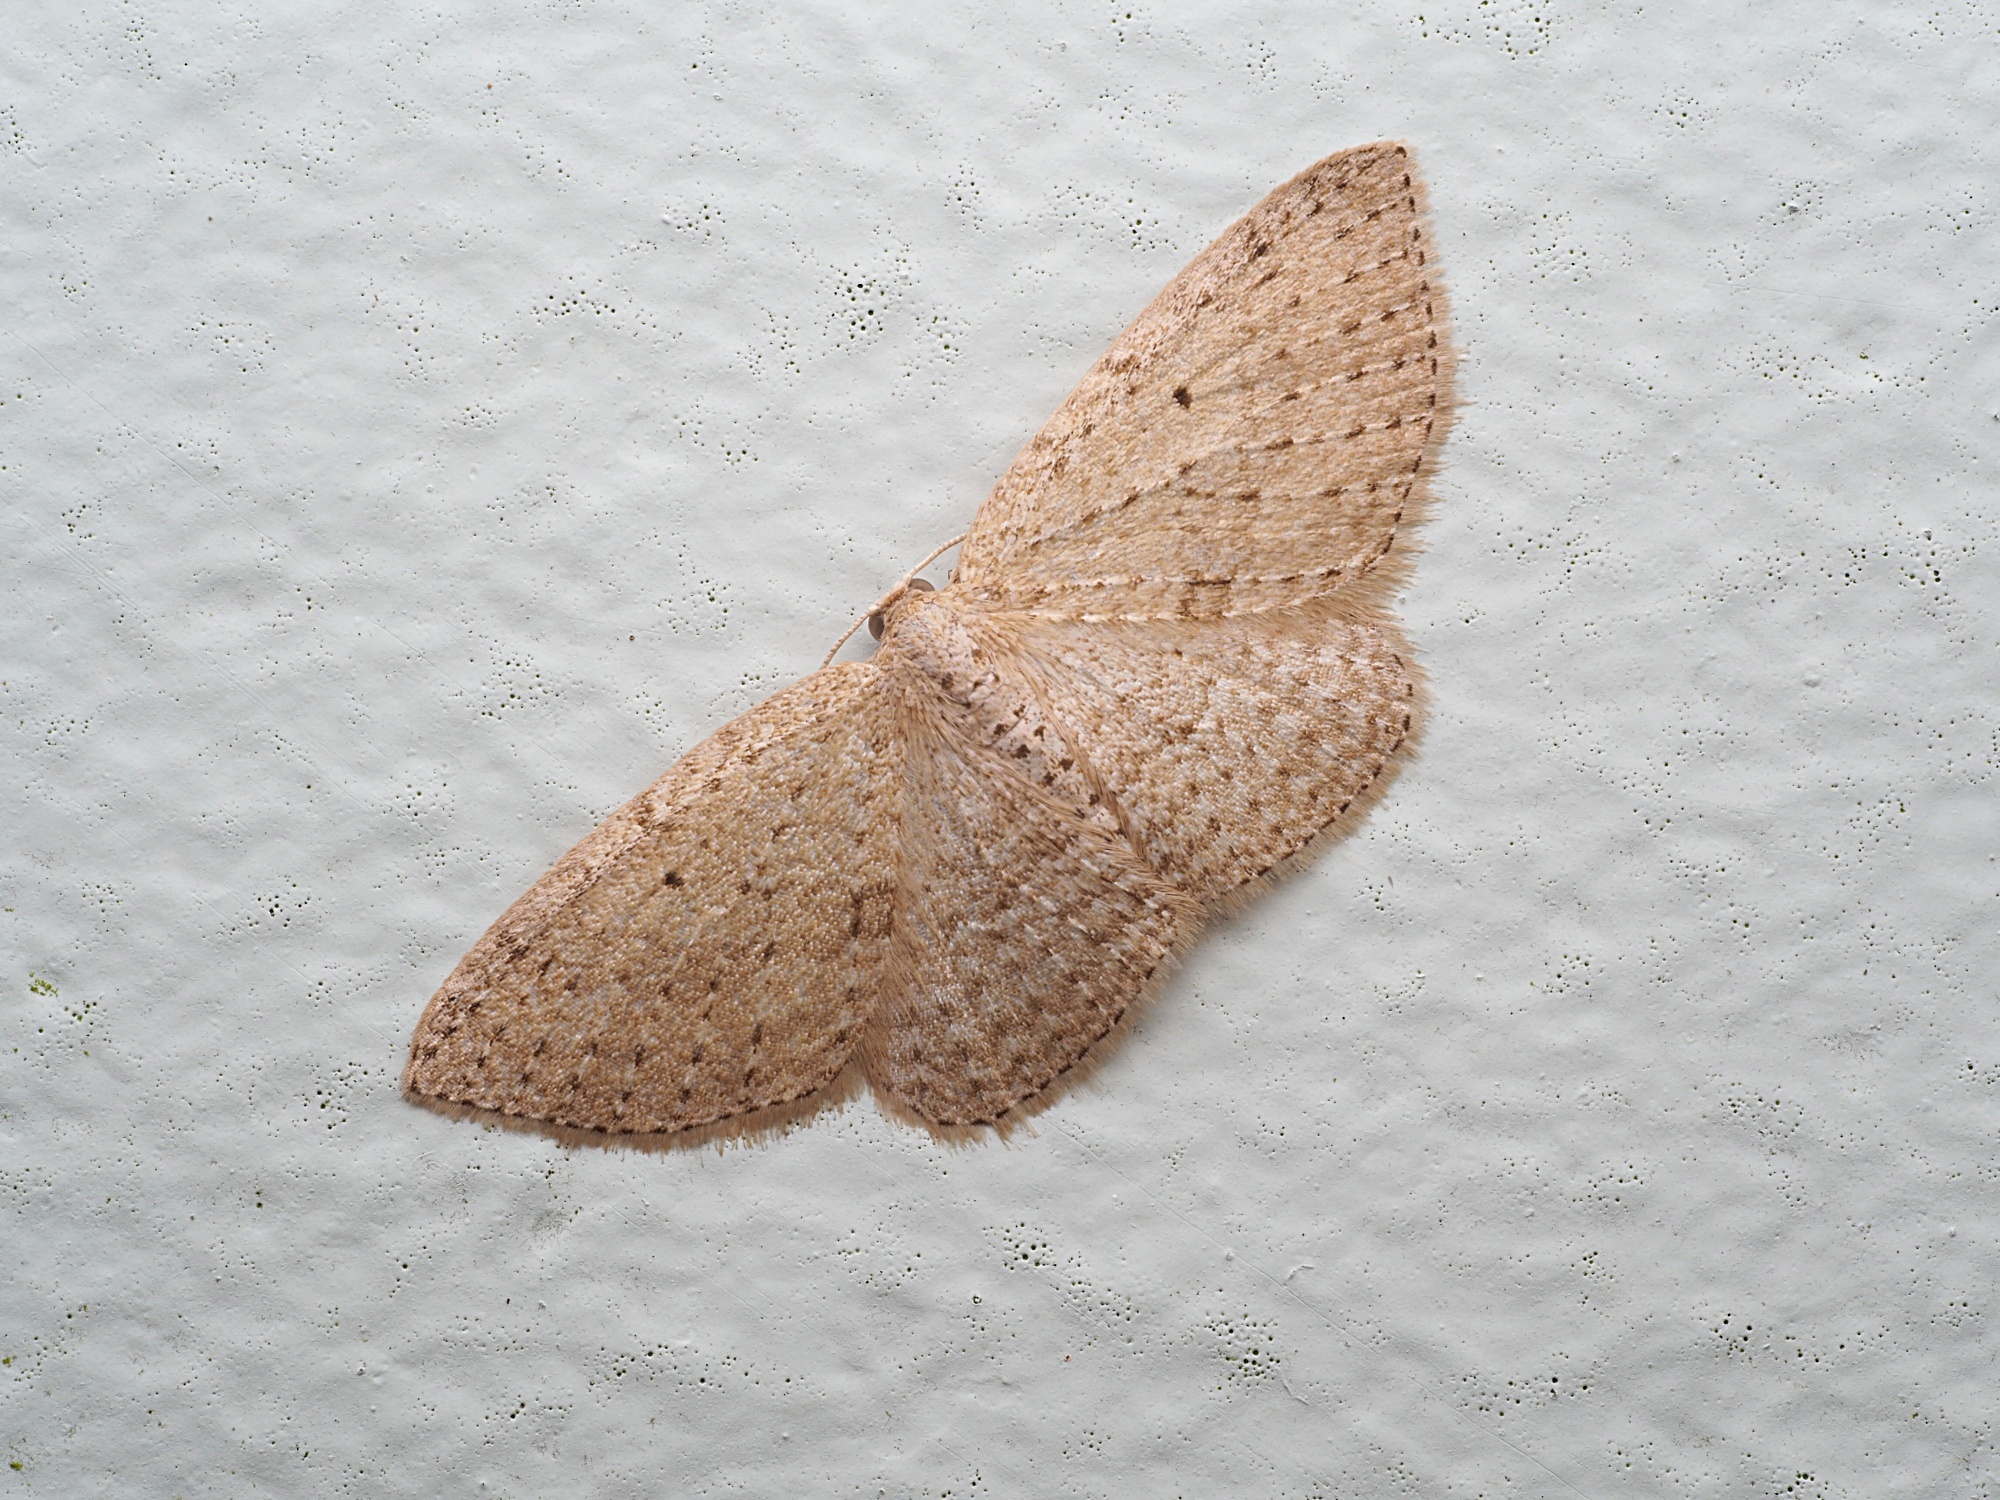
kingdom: Animalia
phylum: Arthropoda
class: Insecta
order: Lepidoptera
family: Geometridae
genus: Poecilasthena
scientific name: Poecilasthena schistaria
